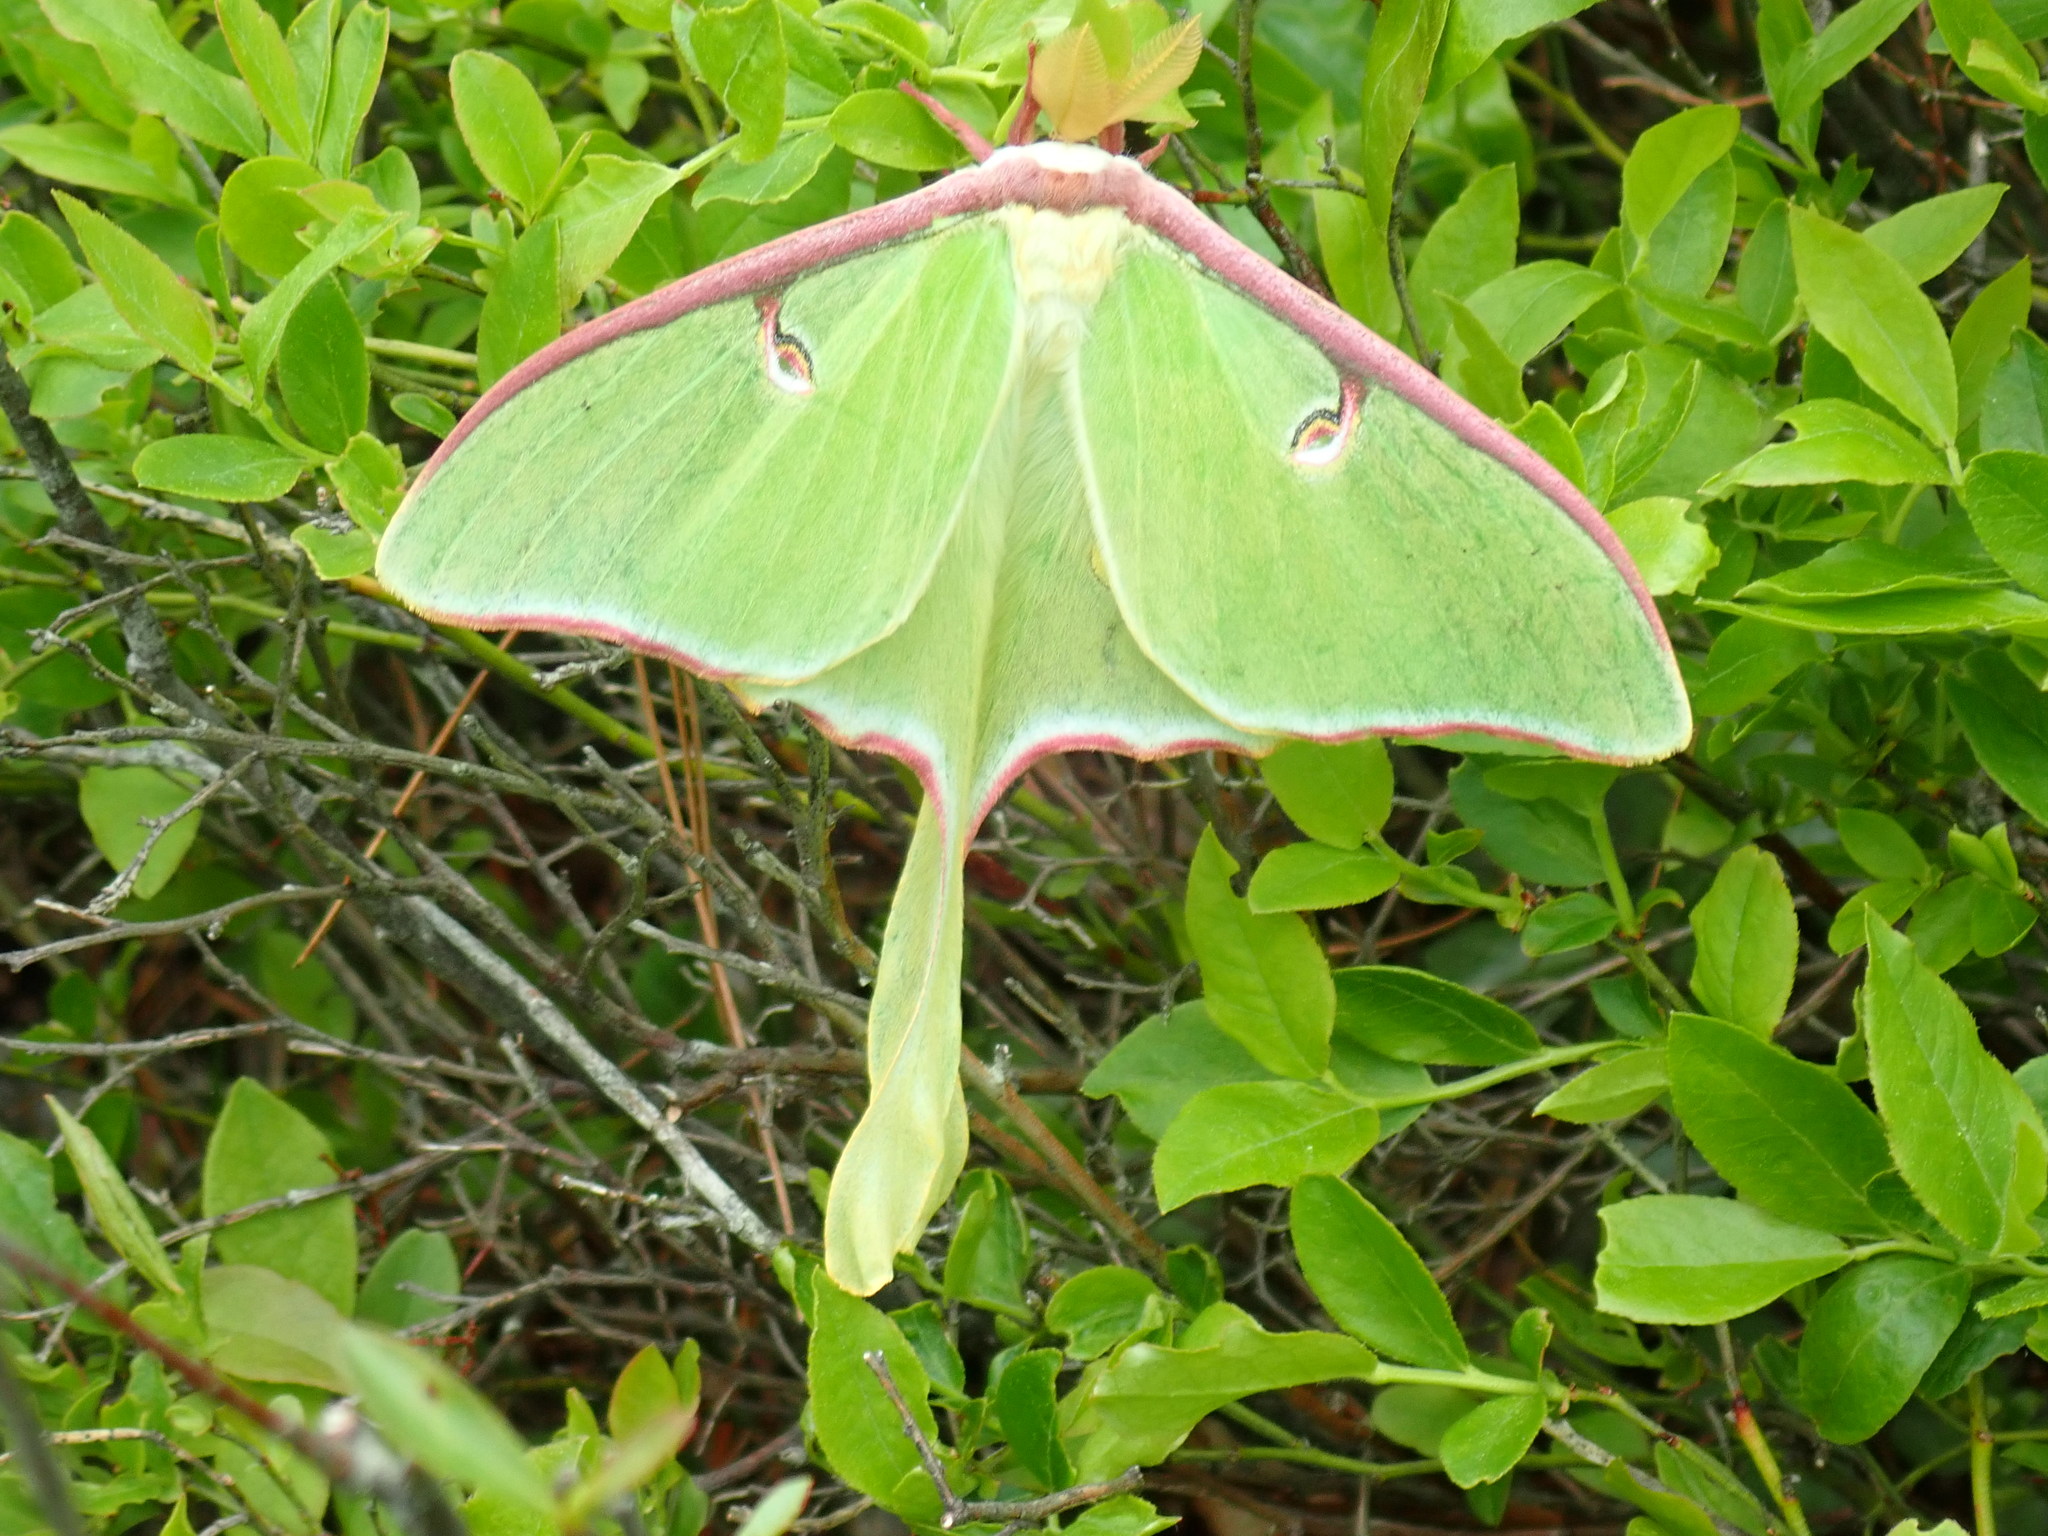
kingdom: Animalia
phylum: Arthropoda
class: Insecta
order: Lepidoptera
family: Saturniidae
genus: Actias
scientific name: Actias luna
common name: Luna moth
